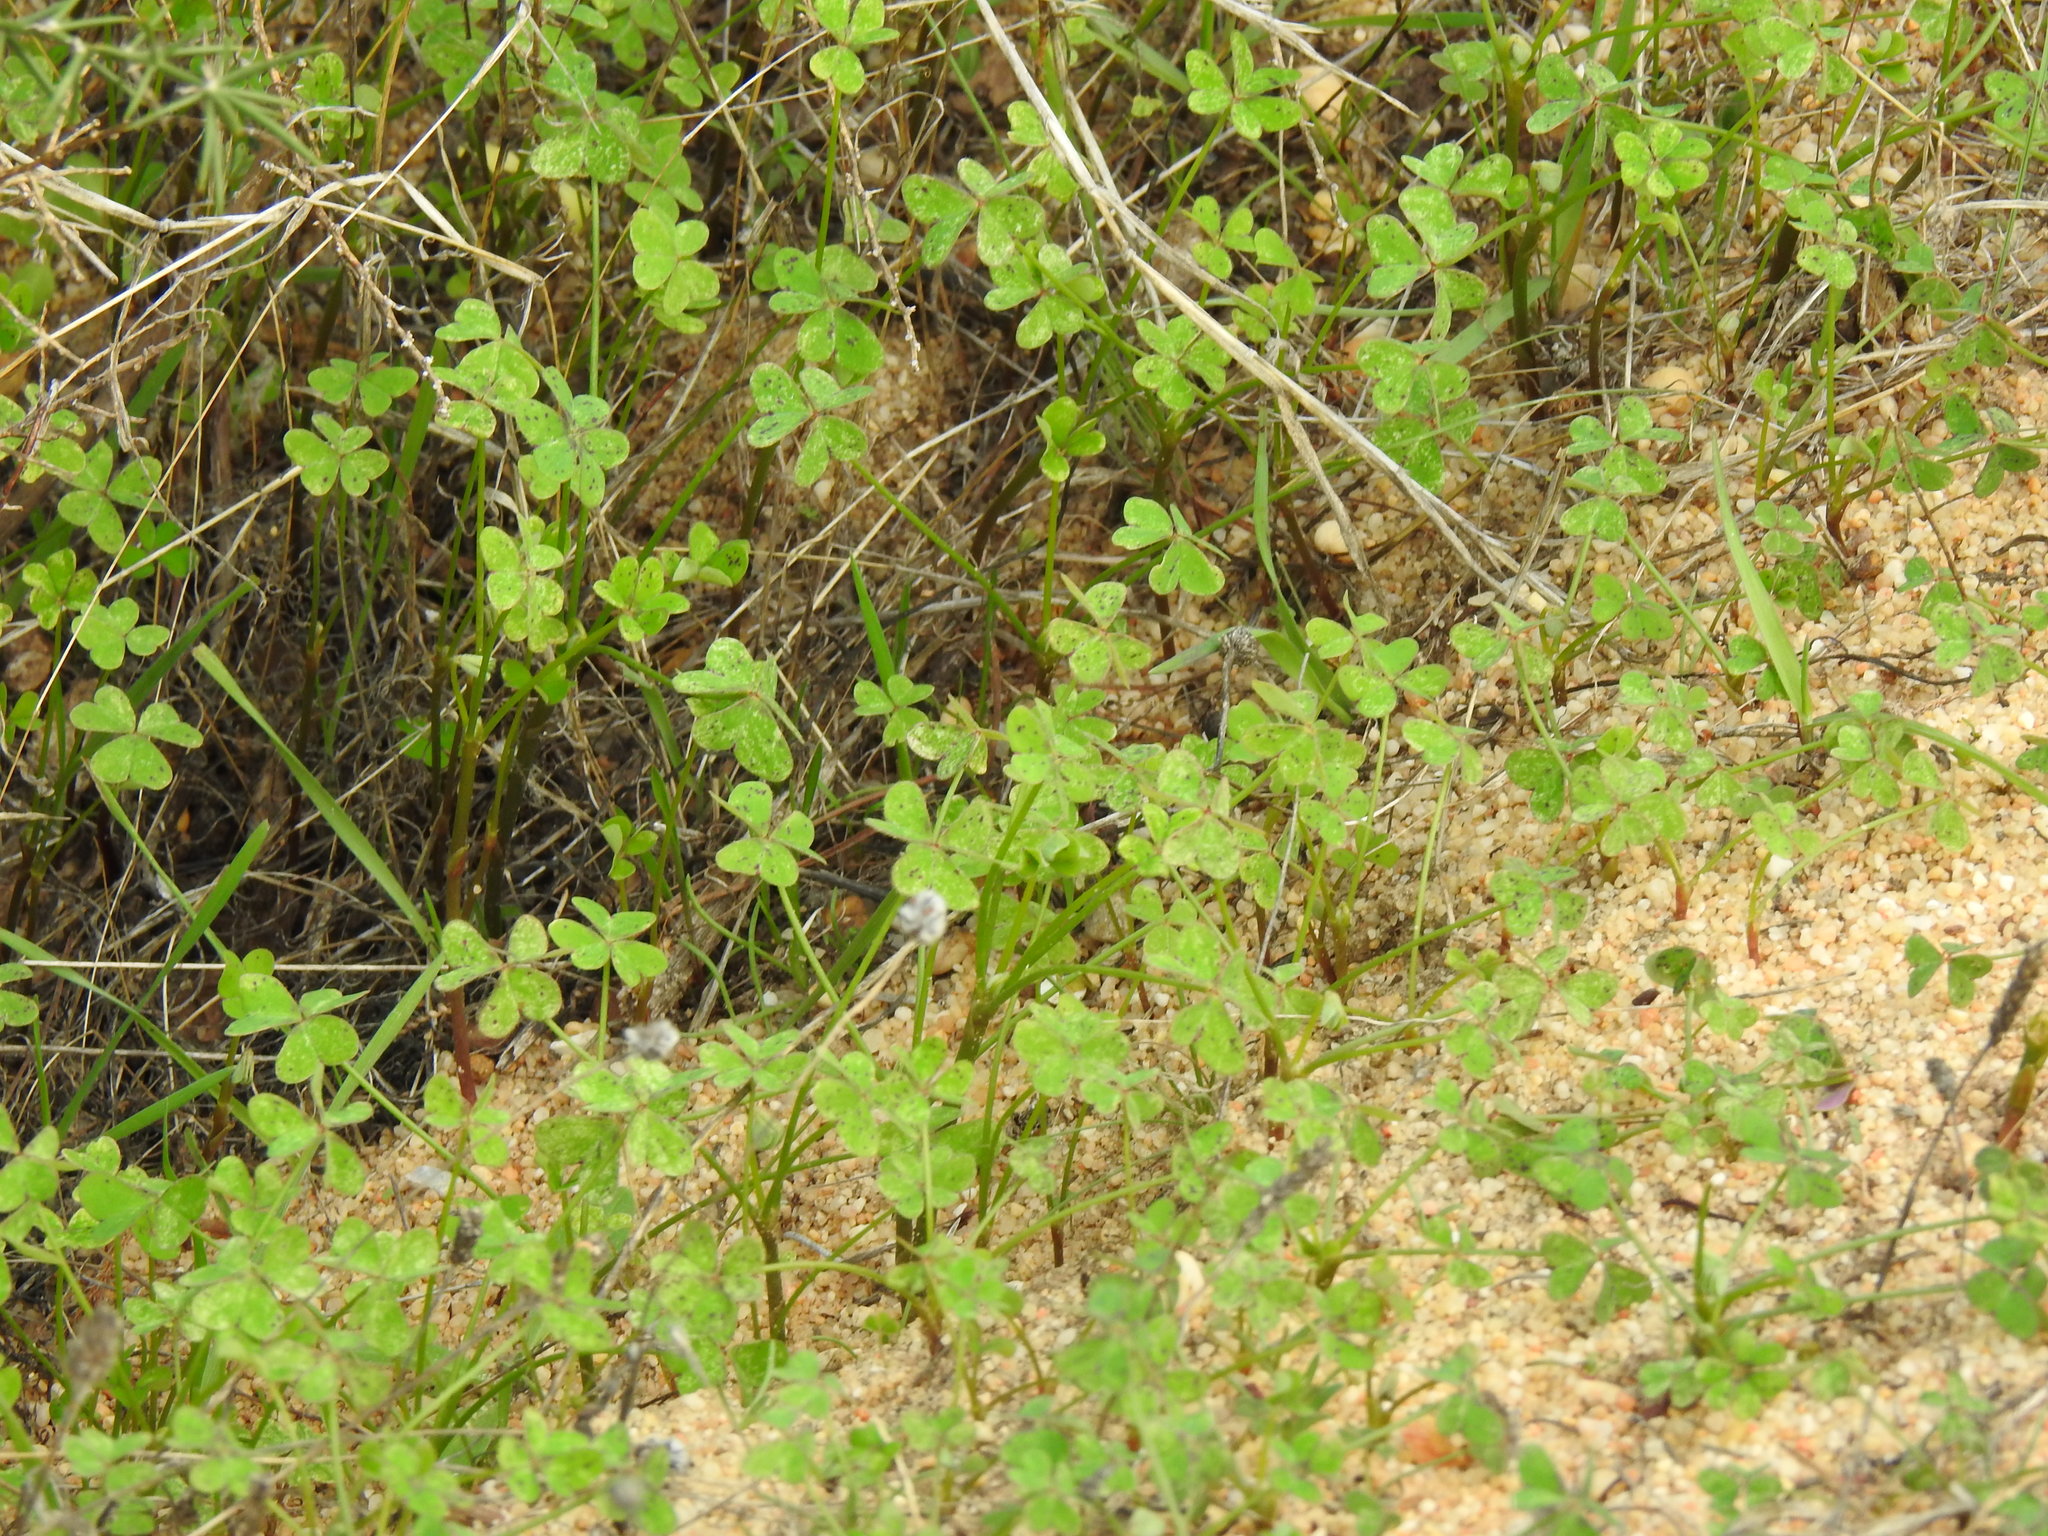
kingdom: Plantae
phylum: Tracheophyta
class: Magnoliopsida
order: Oxalidales
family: Oxalidaceae
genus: Oxalis
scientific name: Oxalis pes-caprae
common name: Bermuda-buttercup
